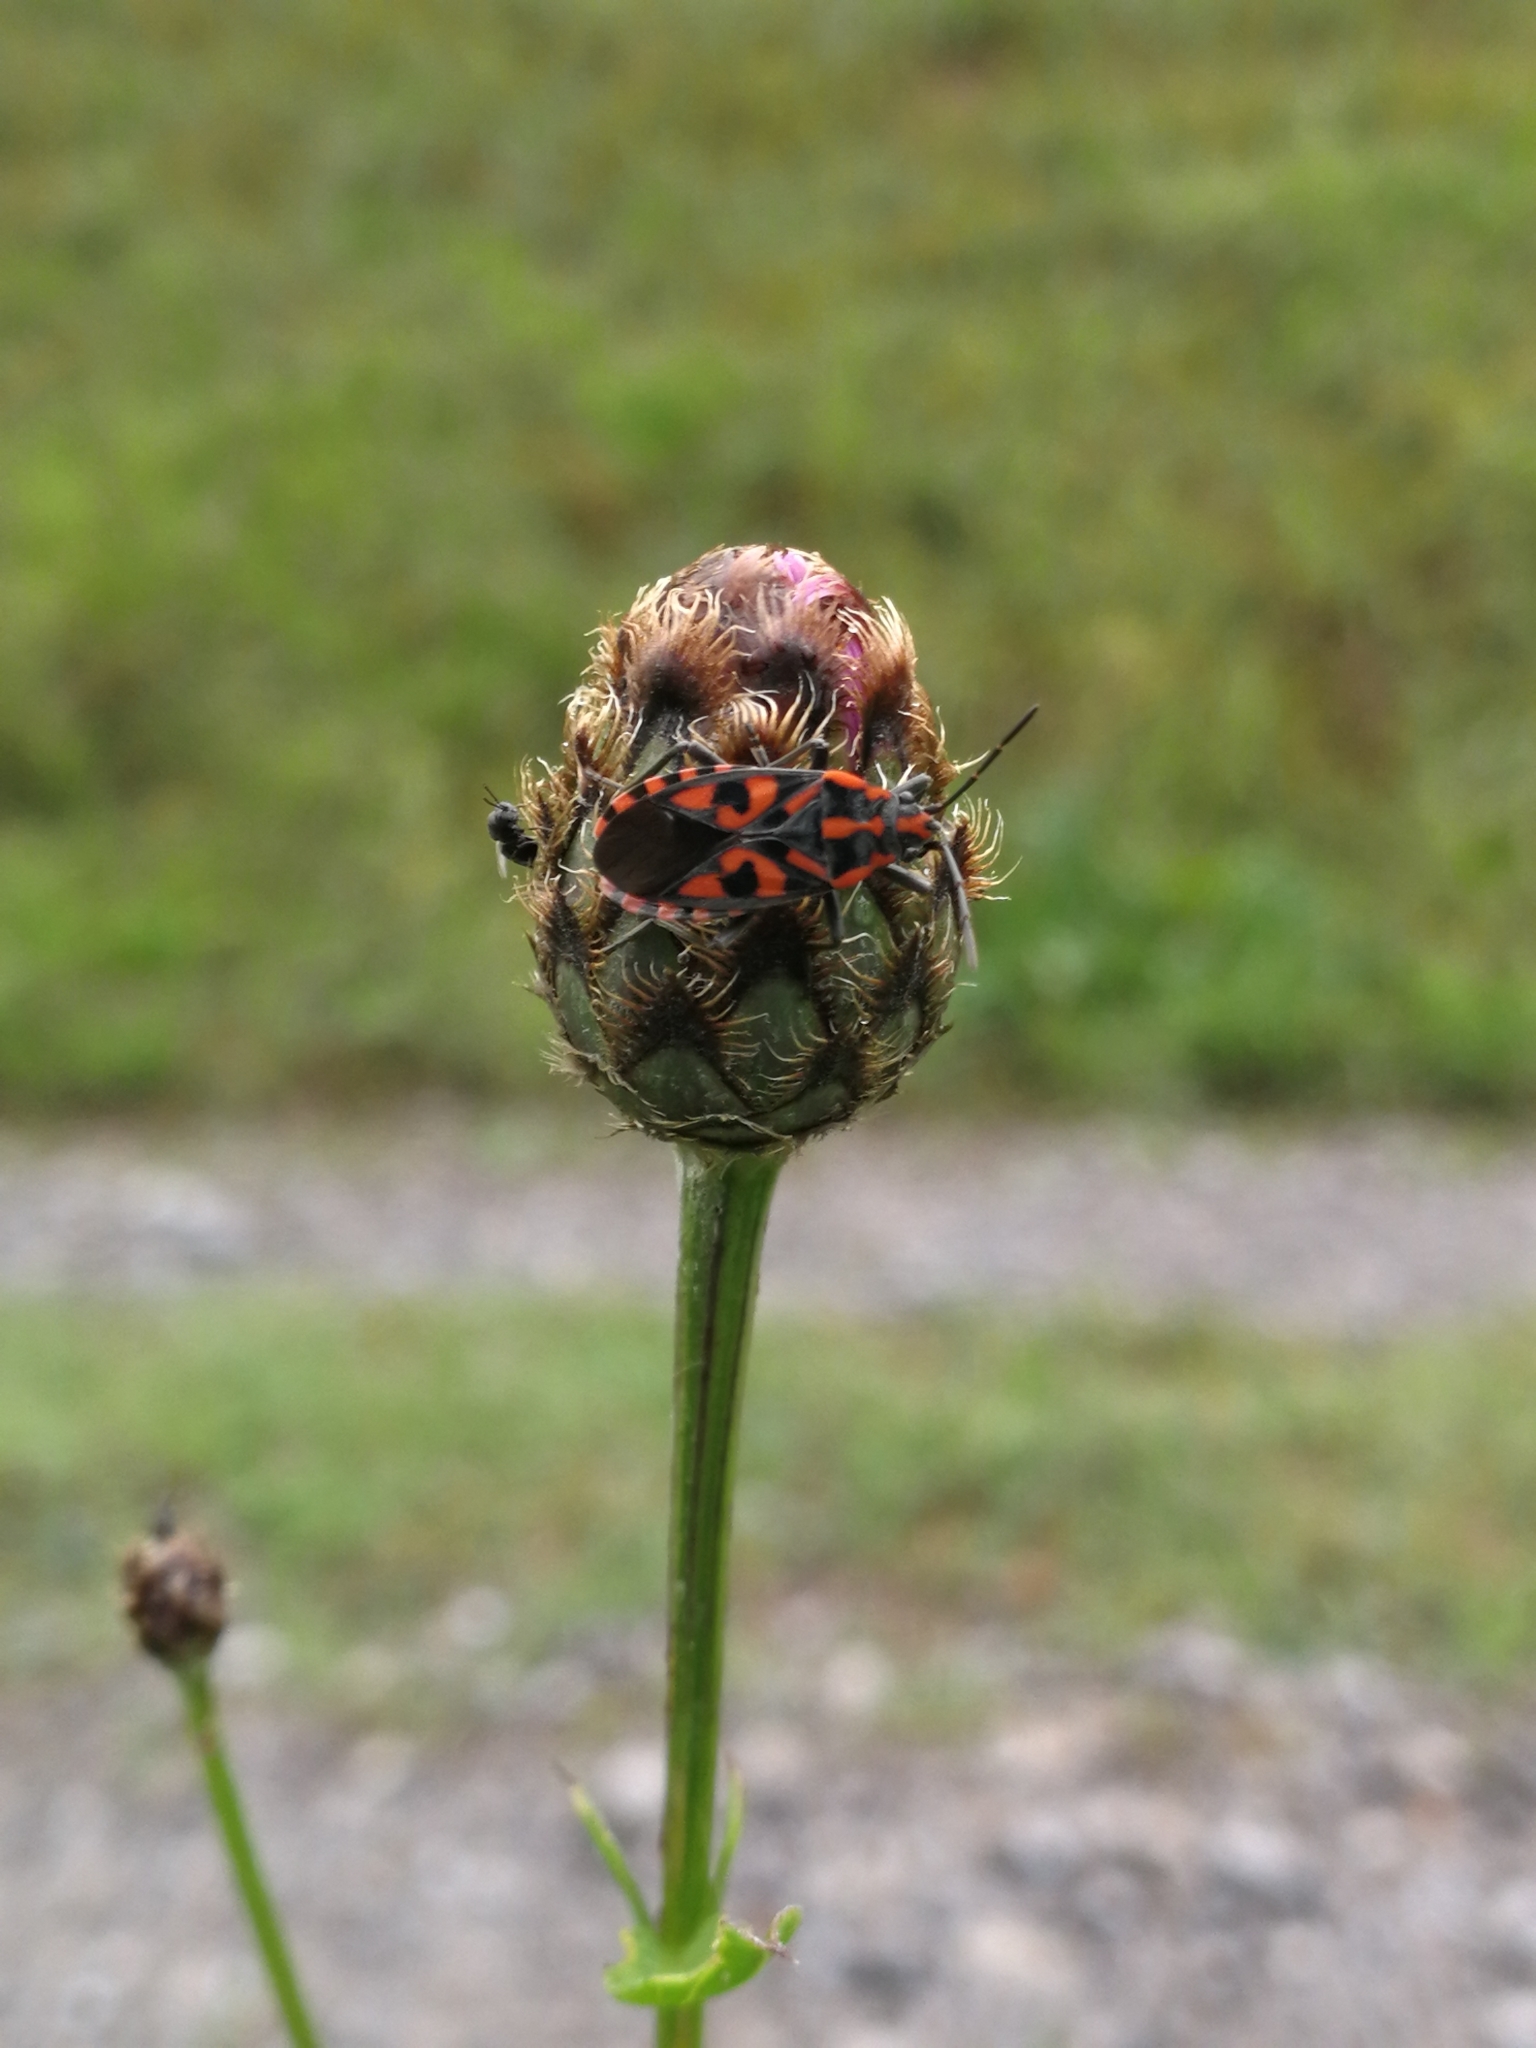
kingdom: Animalia
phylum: Arthropoda
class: Insecta
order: Hemiptera
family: Lygaeidae
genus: Spilostethus
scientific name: Spilostethus saxatilis
